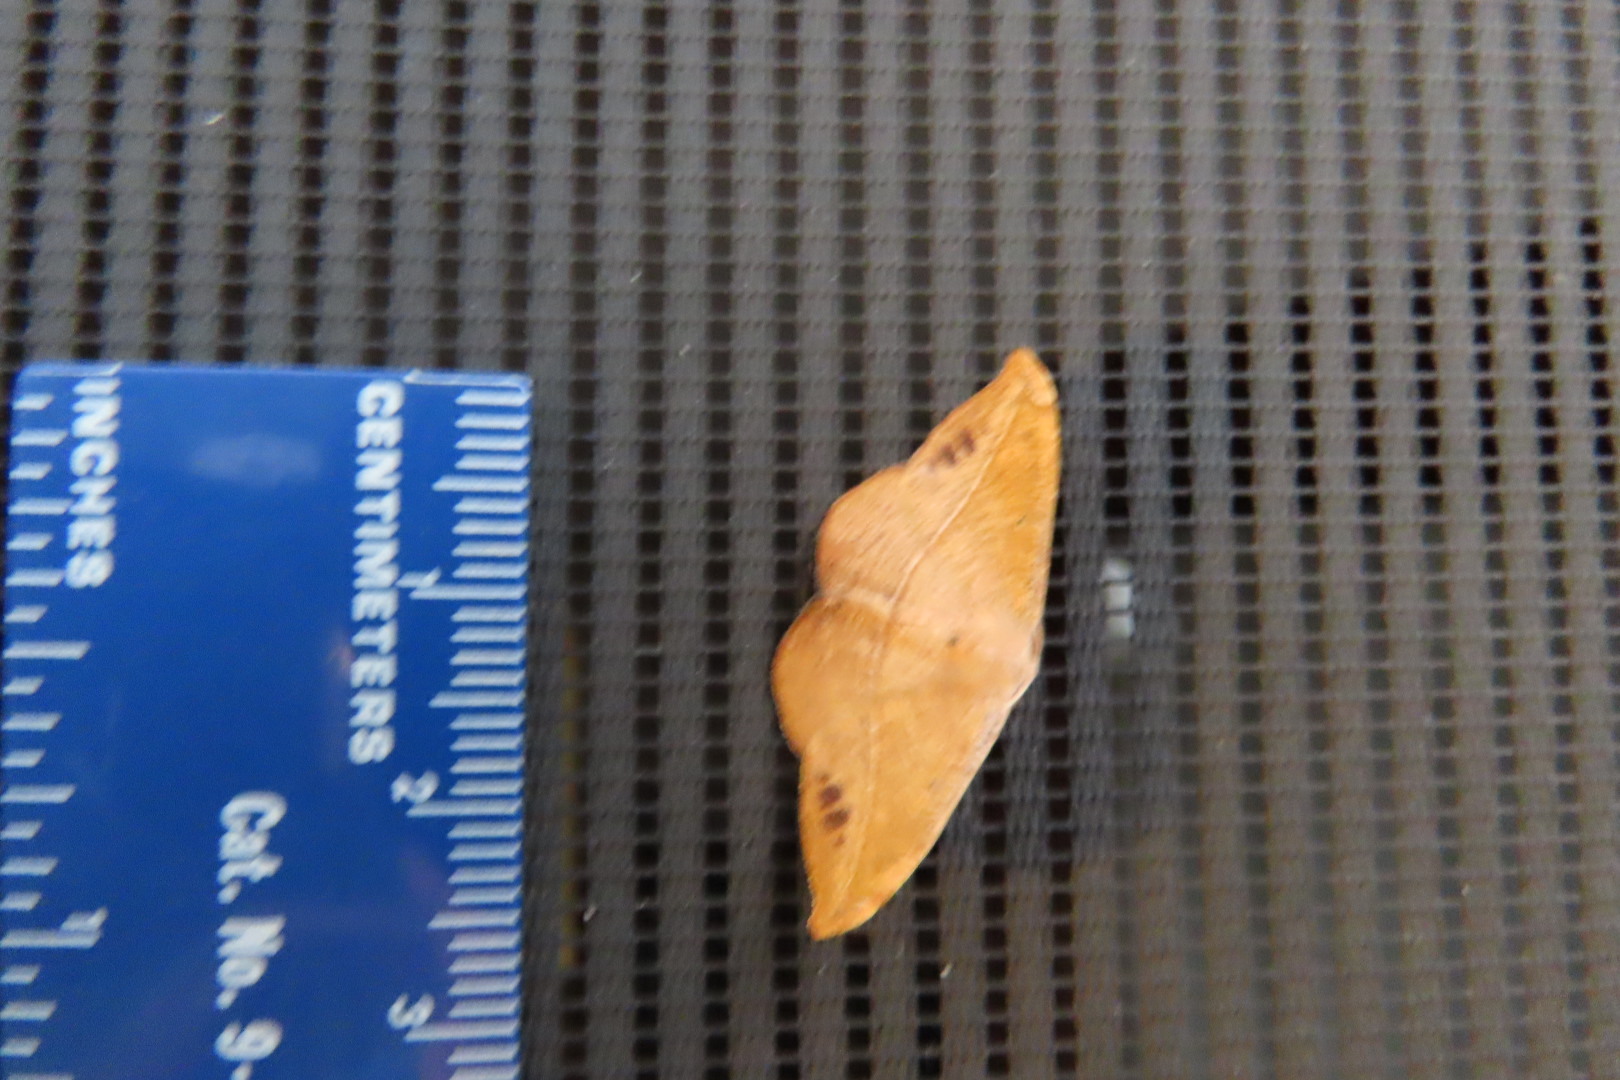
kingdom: Animalia
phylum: Arthropoda
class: Insecta
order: Lepidoptera
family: Geometridae
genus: Patalene
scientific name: Patalene olyzonaria
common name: Juniper geometer moth
